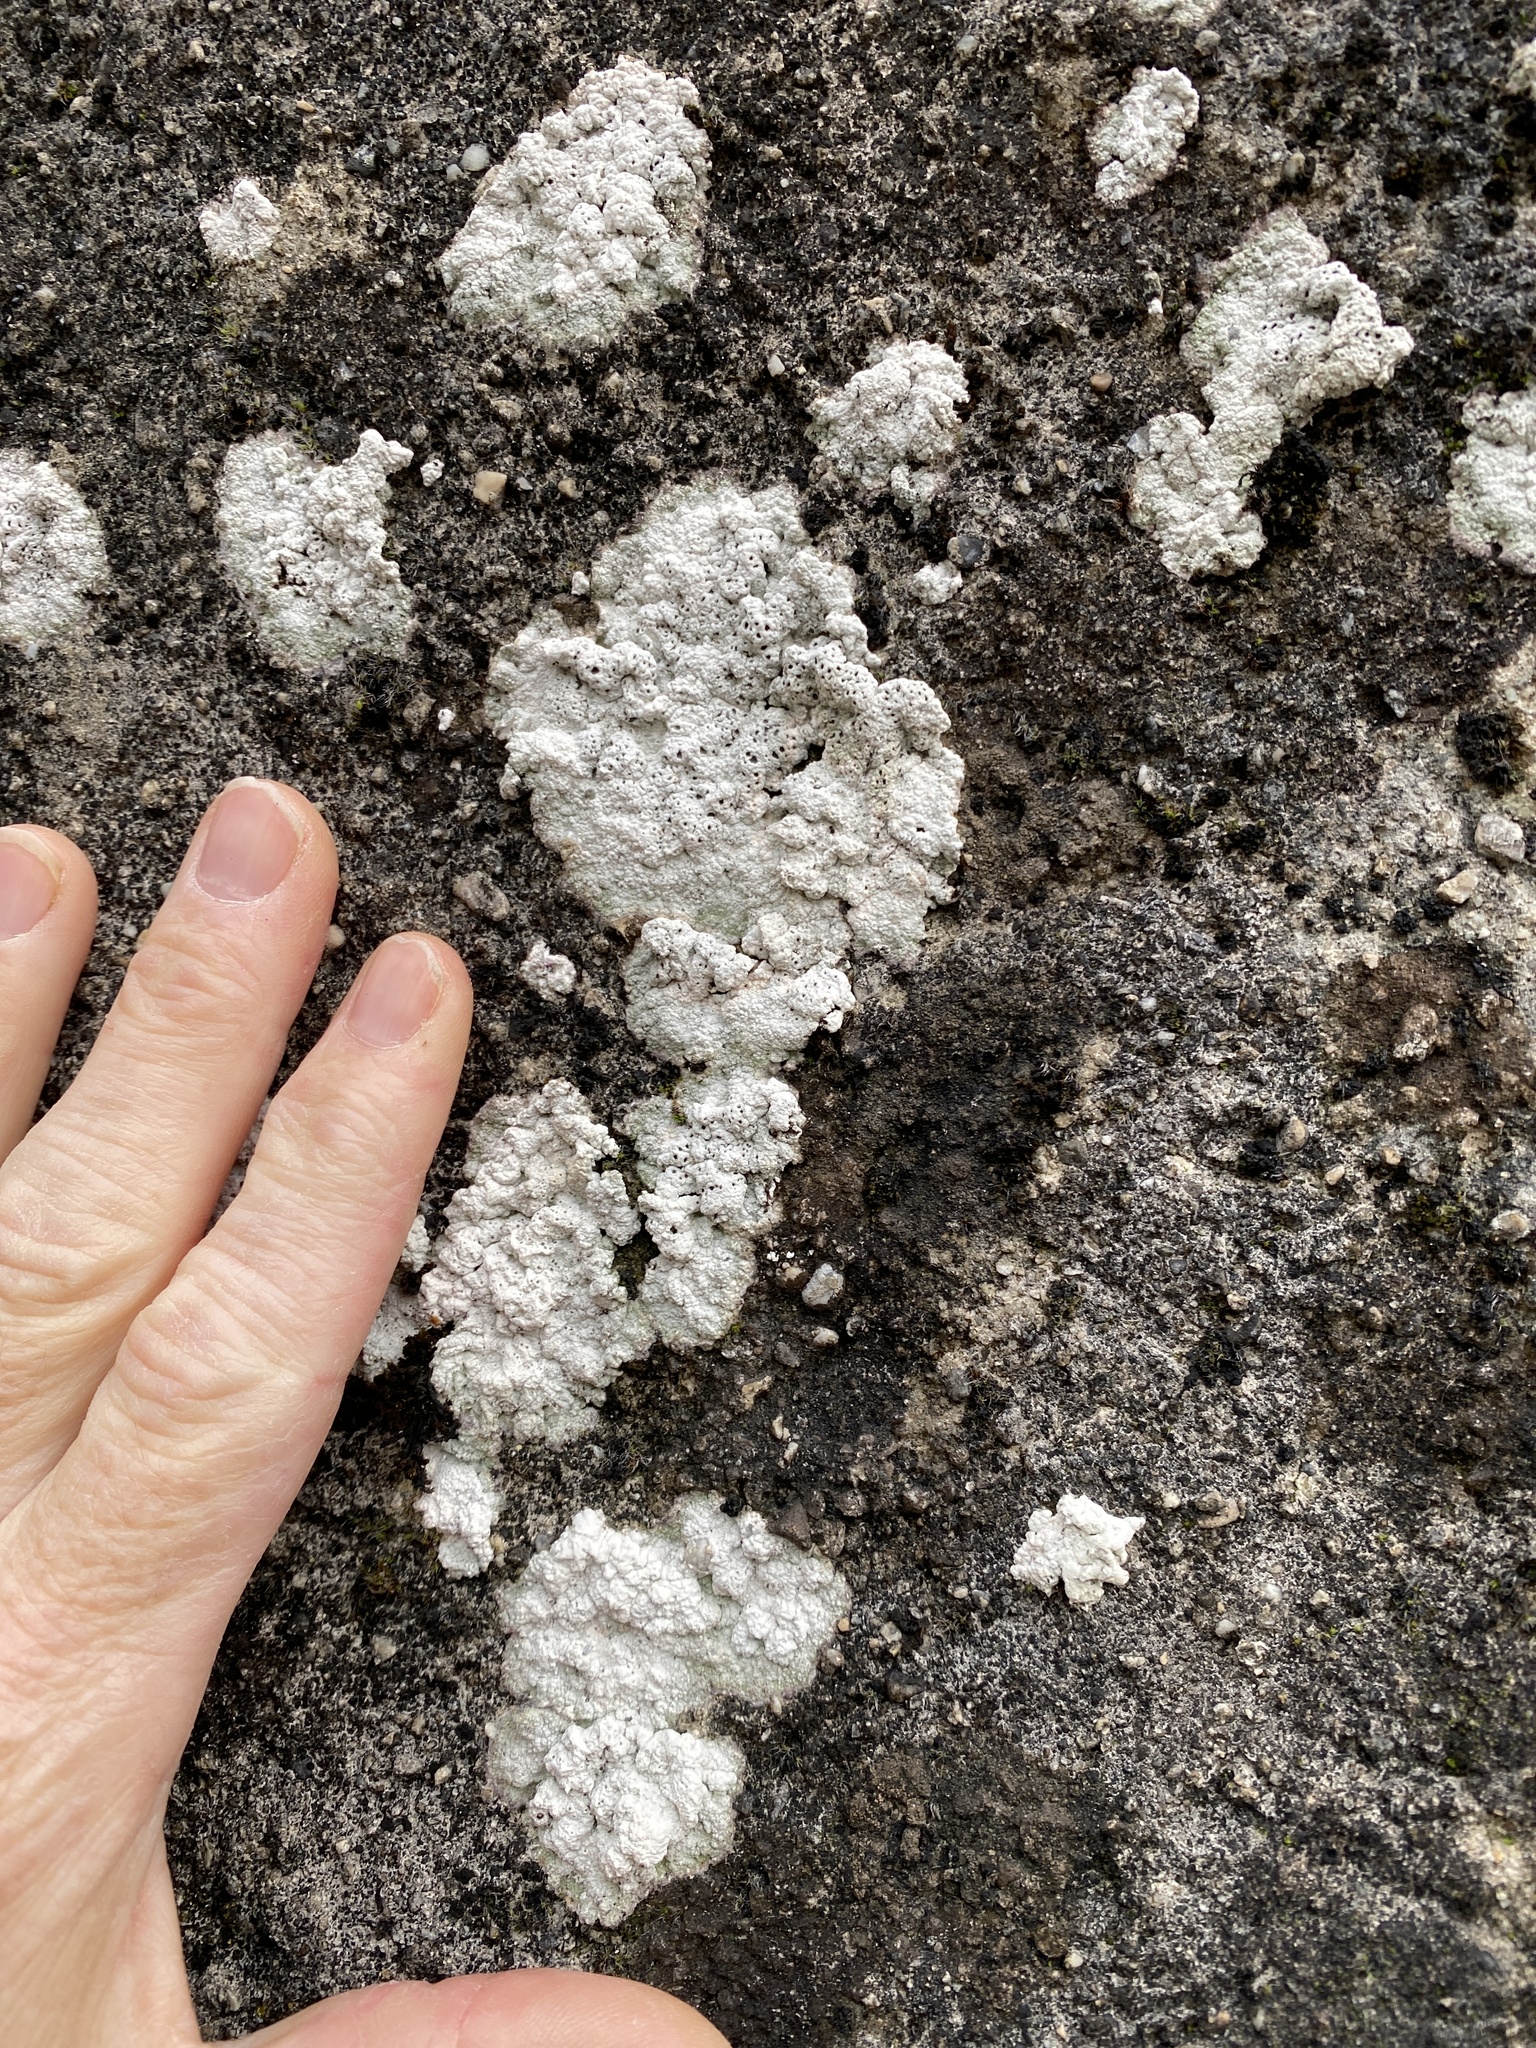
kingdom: Fungi
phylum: Ascomycota
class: Lecanoromycetes
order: Ostropales
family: Graphidaceae
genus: Diploschistes
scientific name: Diploschistes scruposus
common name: Crater lichen
